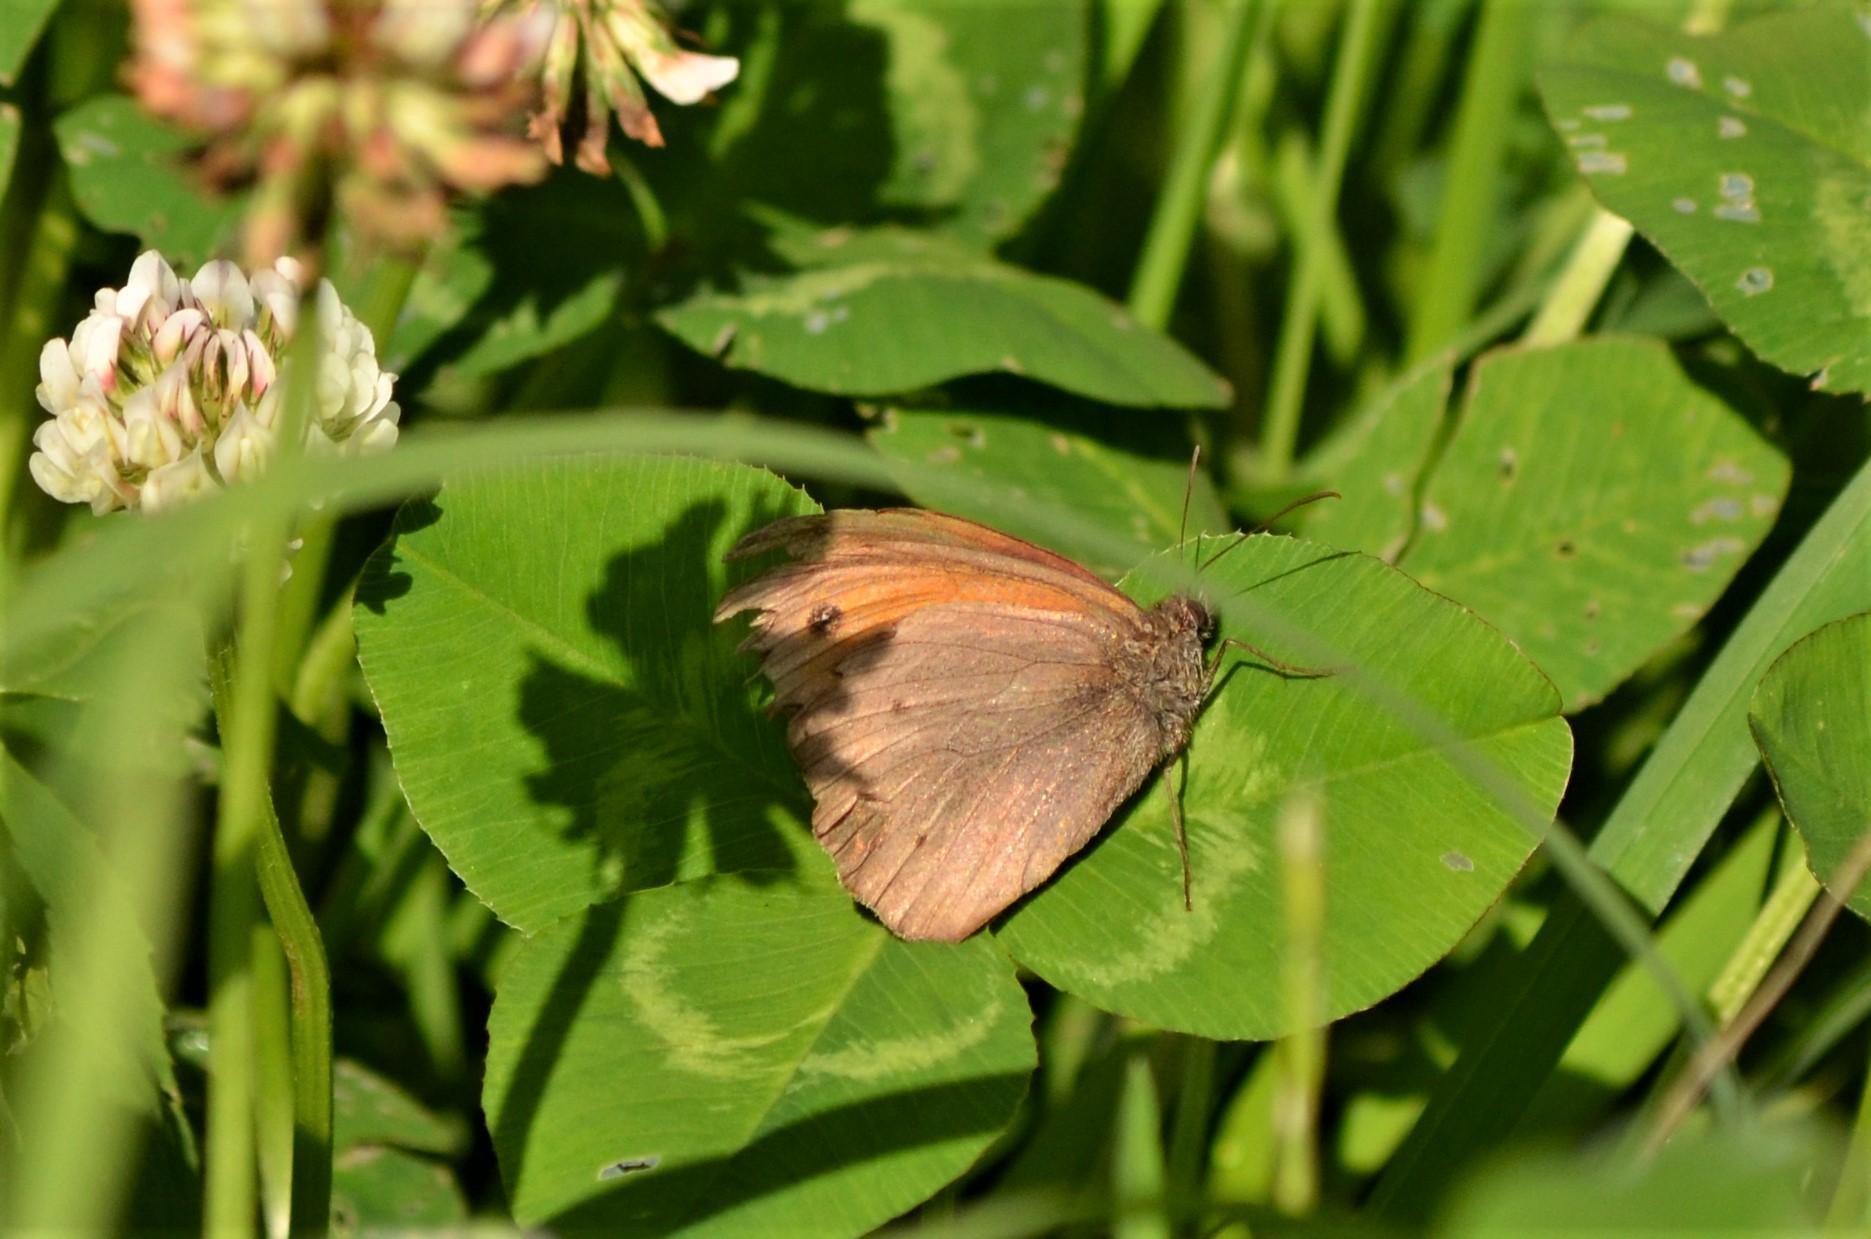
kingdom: Animalia
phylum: Arthropoda
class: Insecta
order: Lepidoptera
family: Nymphalidae
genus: Maniola
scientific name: Maniola jurtina
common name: Meadow brown
